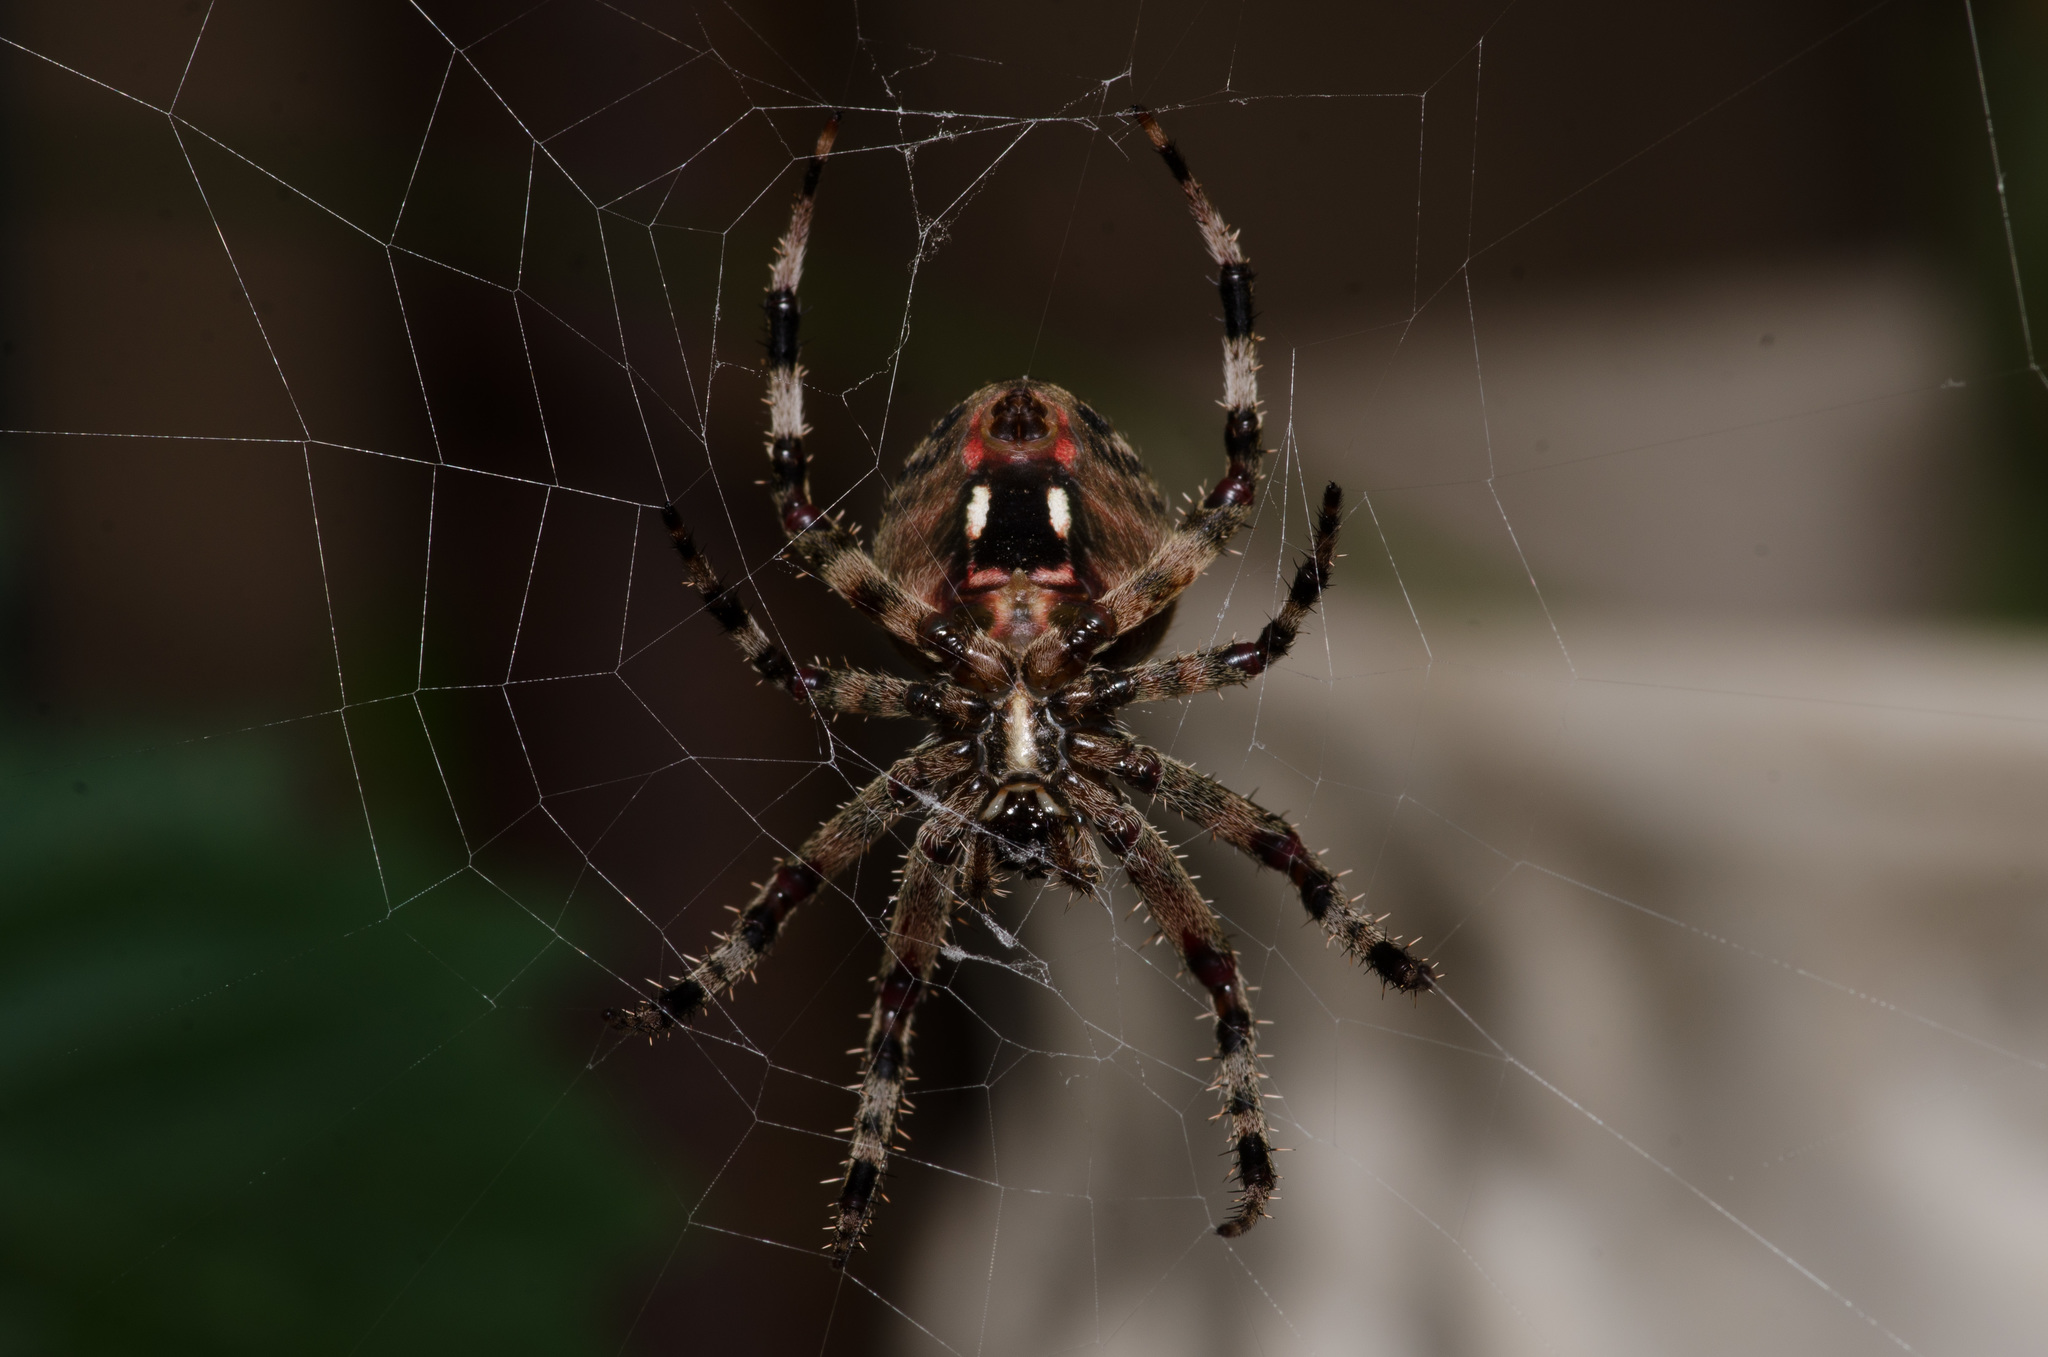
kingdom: Animalia
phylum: Arthropoda
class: Arachnida
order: Araneae
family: Araneidae
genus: Neoscona
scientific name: Neoscona crucifera
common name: Spotted orbweaver
